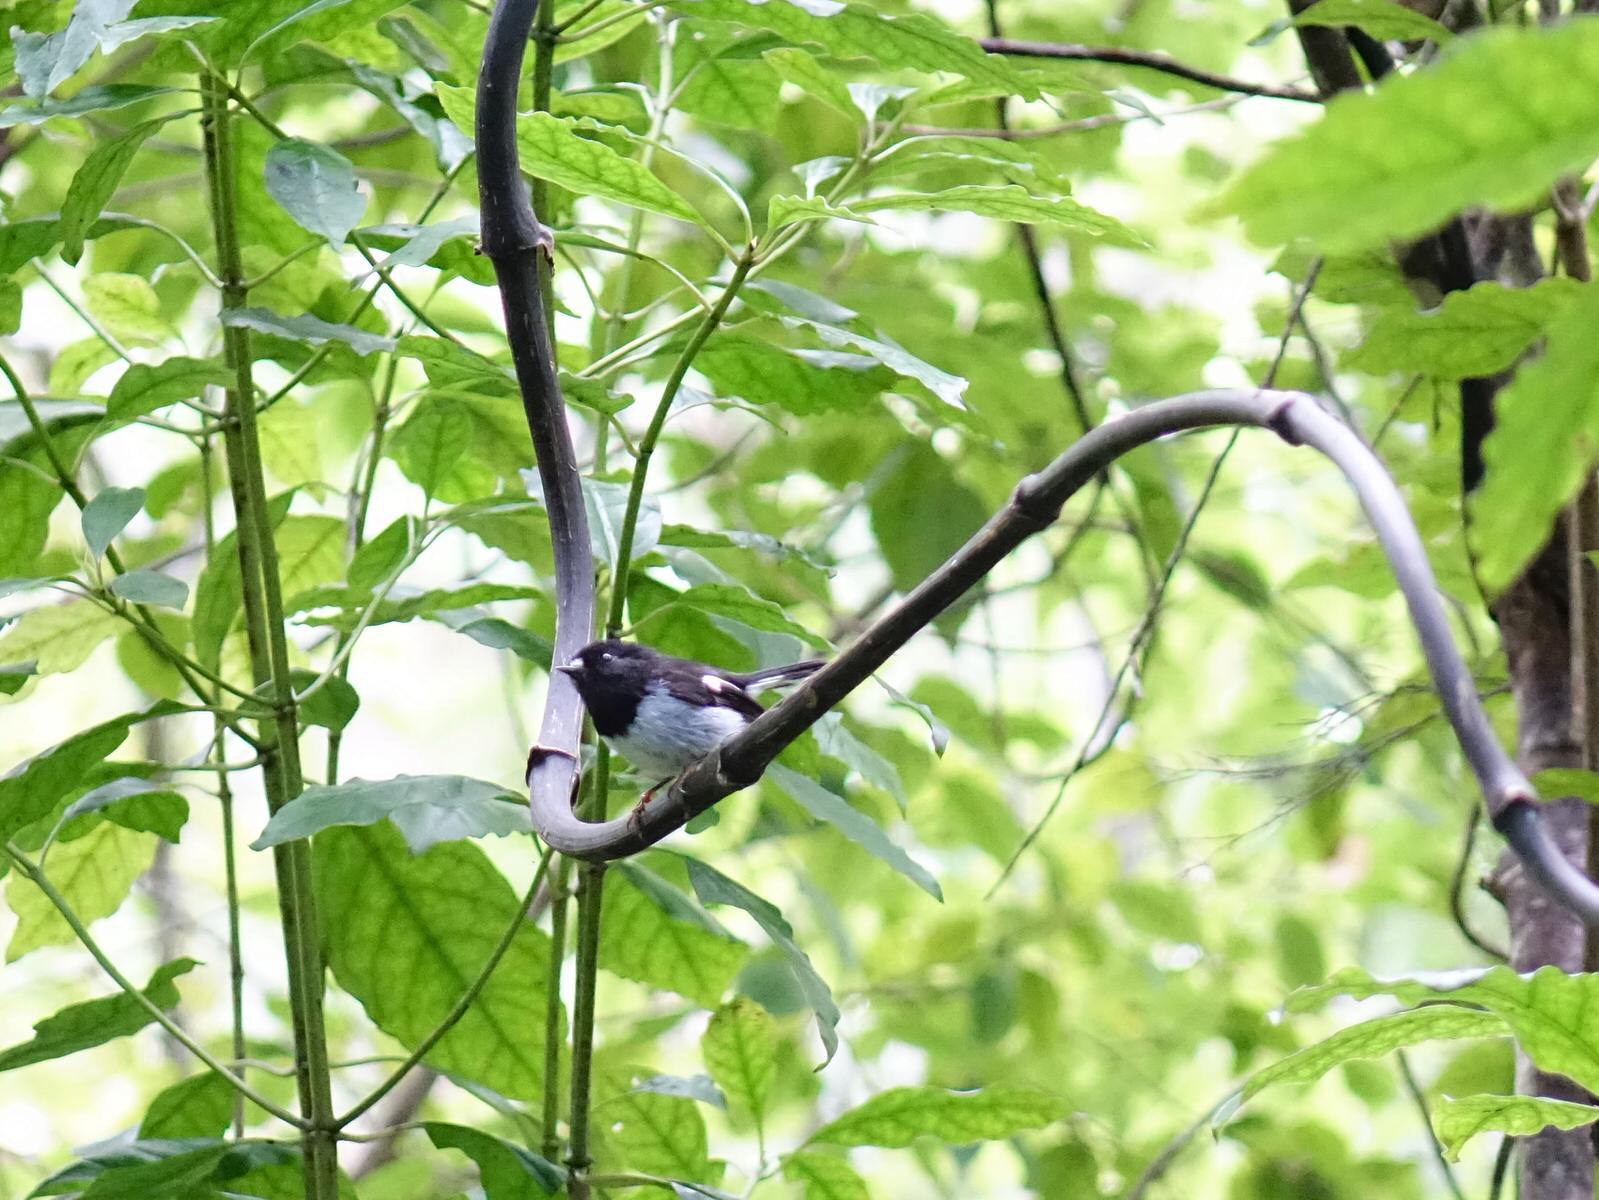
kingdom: Animalia
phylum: Chordata
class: Aves
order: Passeriformes
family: Petroicidae
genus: Petroica
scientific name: Petroica macrocephala
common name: Tomtit
